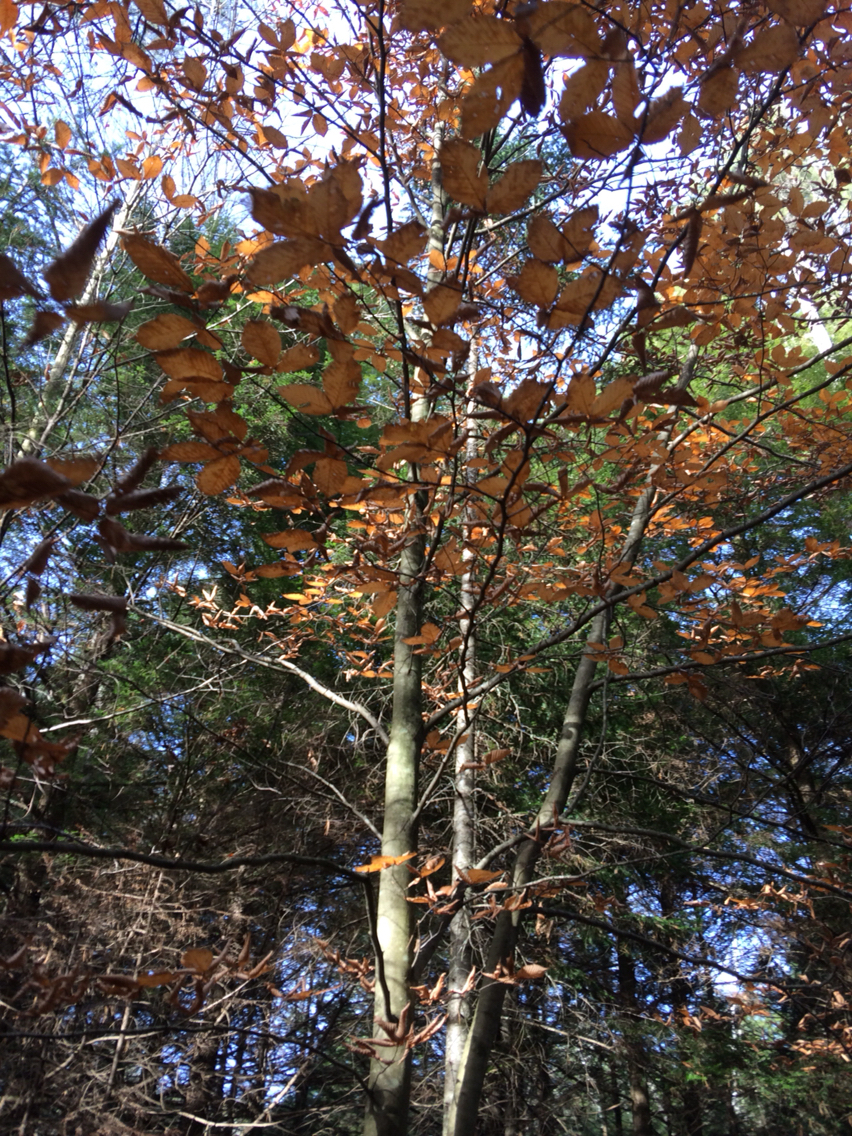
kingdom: Plantae
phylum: Tracheophyta
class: Magnoliopsida
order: Fagales
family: Fagaceae
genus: Fagus
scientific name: Fagus grandifolia
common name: American beech
